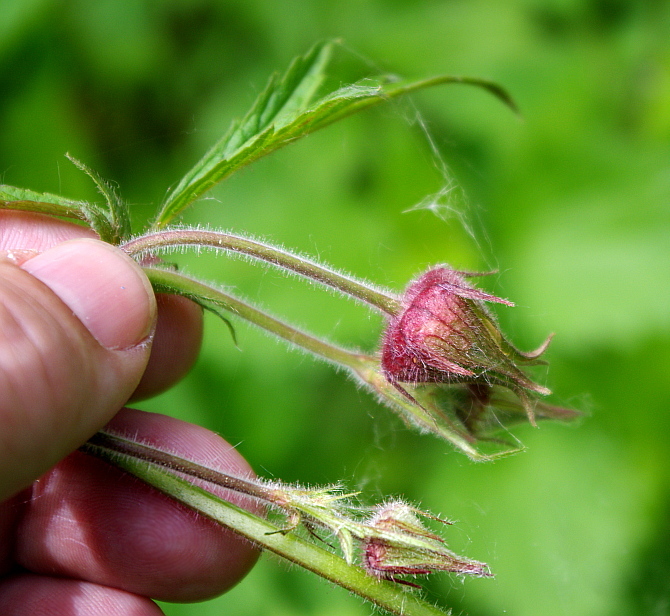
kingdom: Plantae
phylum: Tracheophyta
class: Magnoliopsida
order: Rosales
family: Rosaceae
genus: Geum
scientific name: Geum rivale
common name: Water avens
